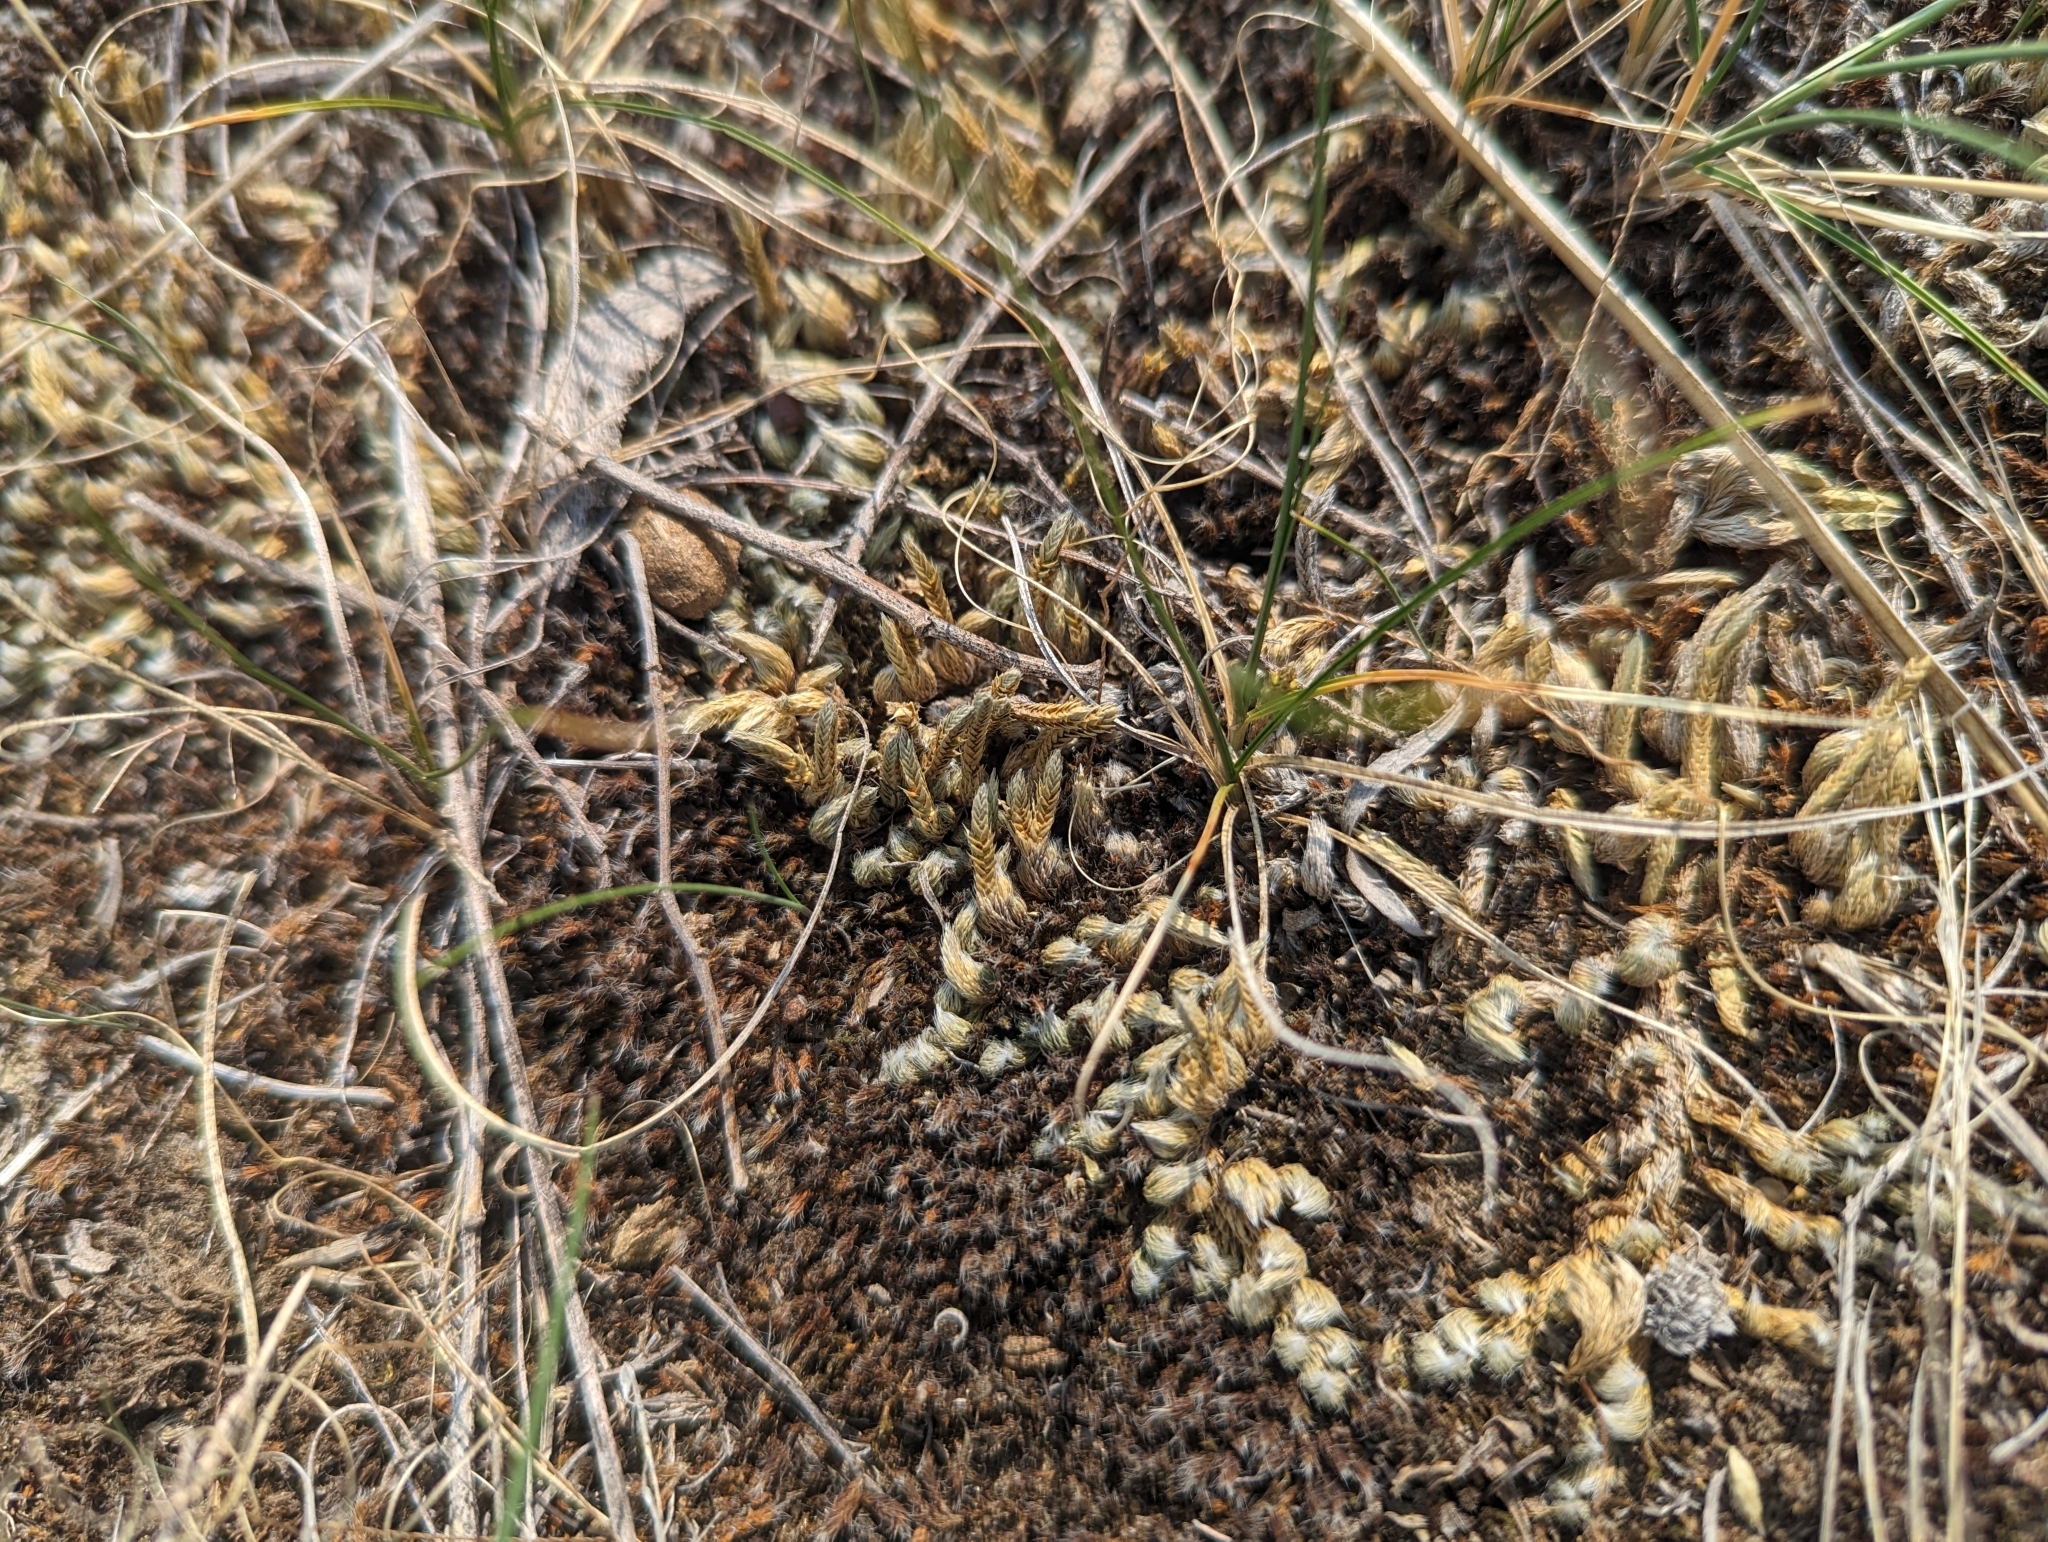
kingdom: Plantae
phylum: Tracheophyta
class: Lycopodiopsida
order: Selaginellales
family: Selaginellaceae
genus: Selaginella
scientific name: Selaginella densa
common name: Mountain spike-moss
